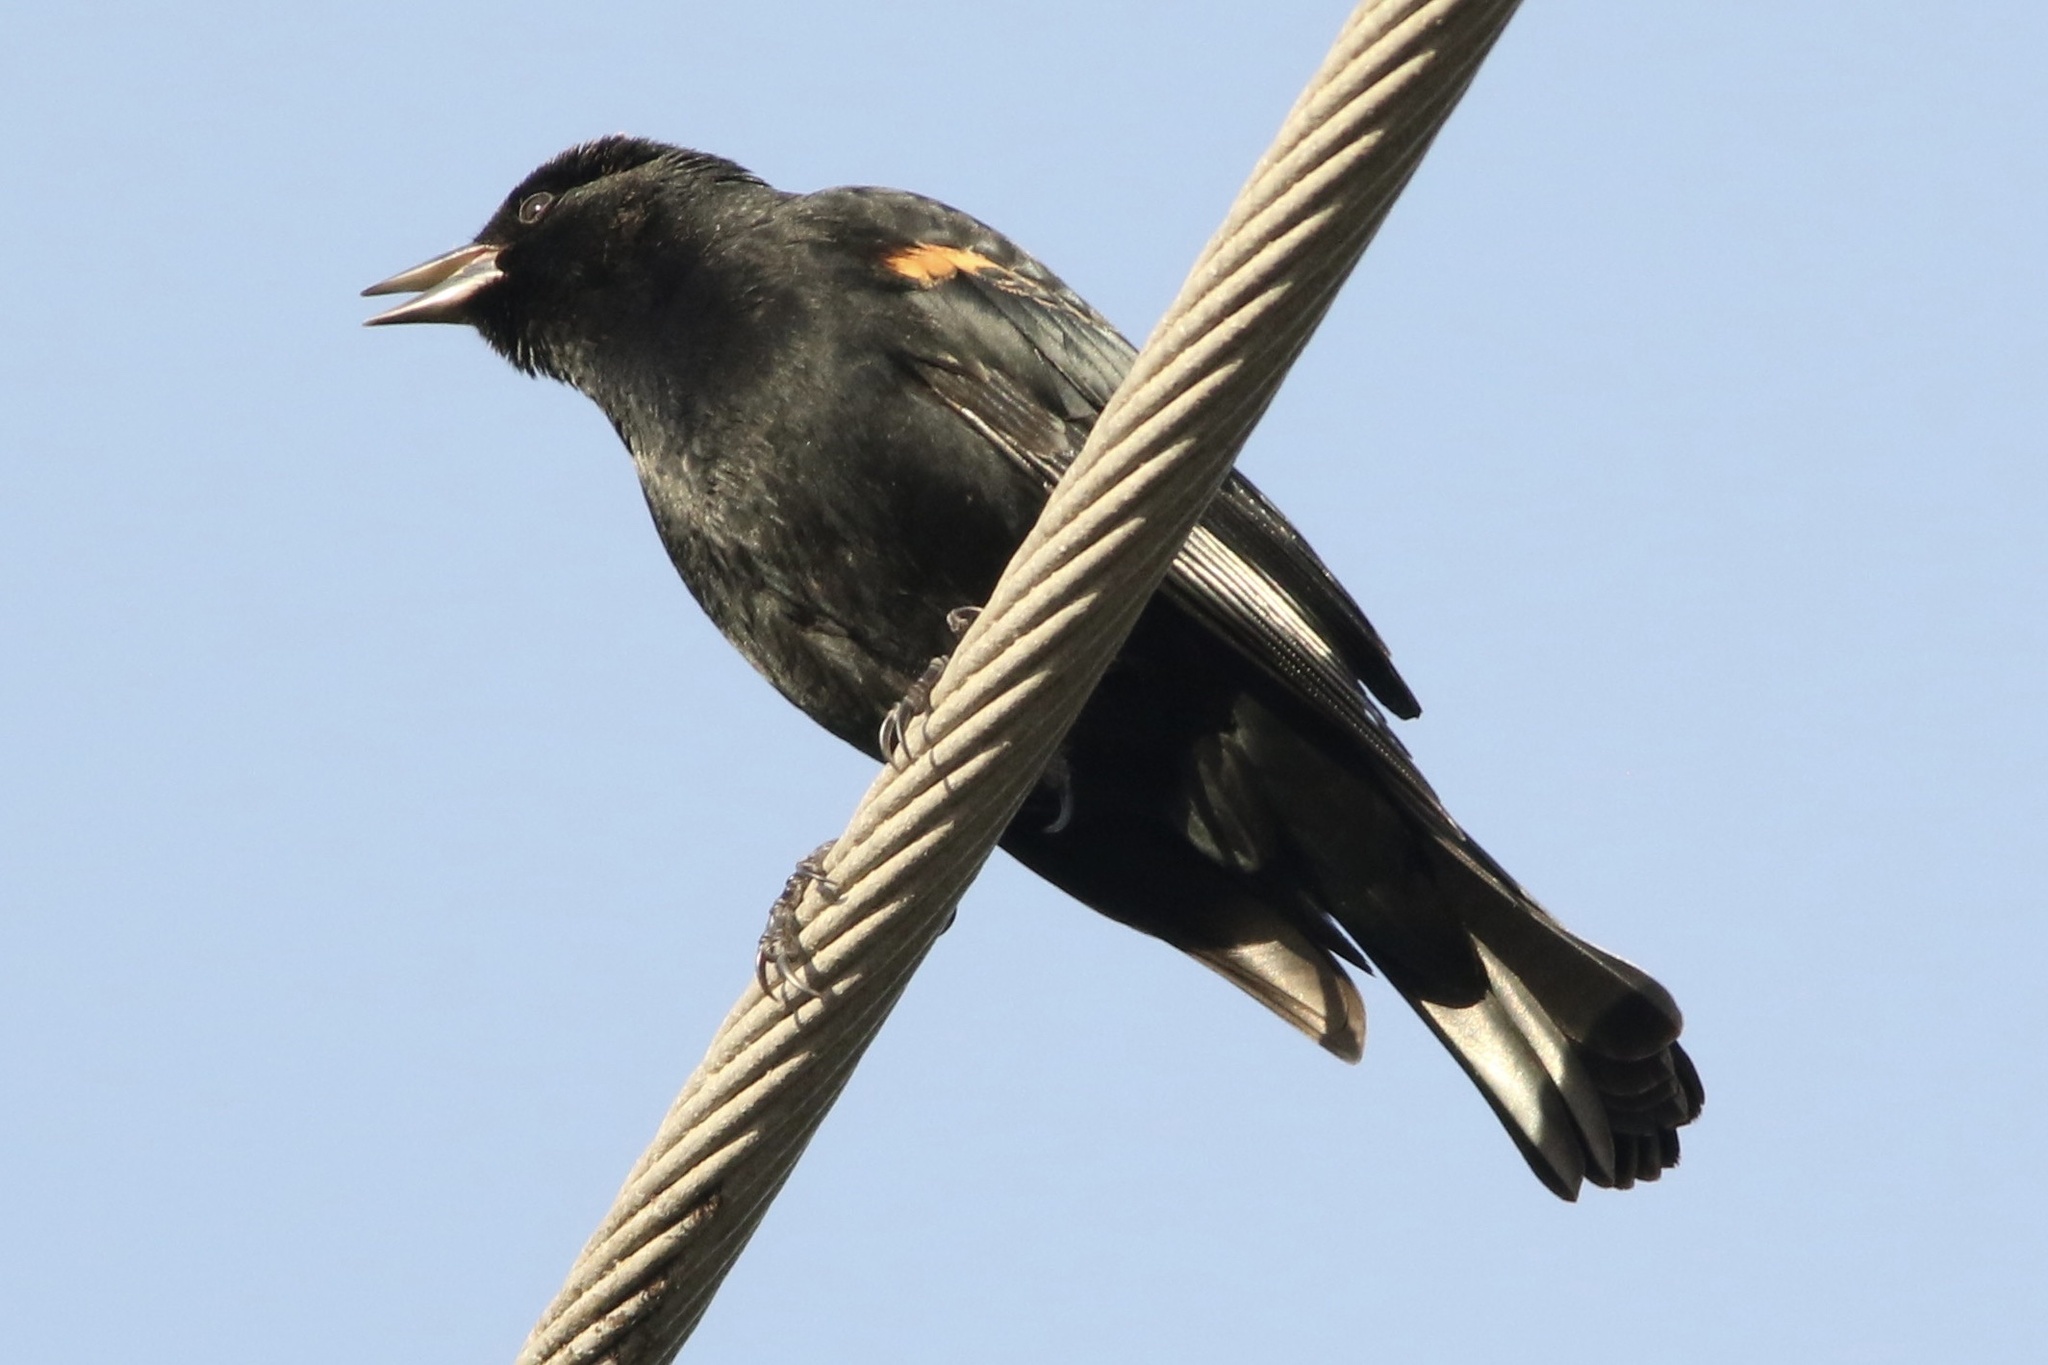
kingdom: Animalia
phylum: Chordata
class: Aves
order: Passeriformes
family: Icteridae
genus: Agelaius
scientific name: Agelaius phoeniceus
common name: Red-winged blackbird
